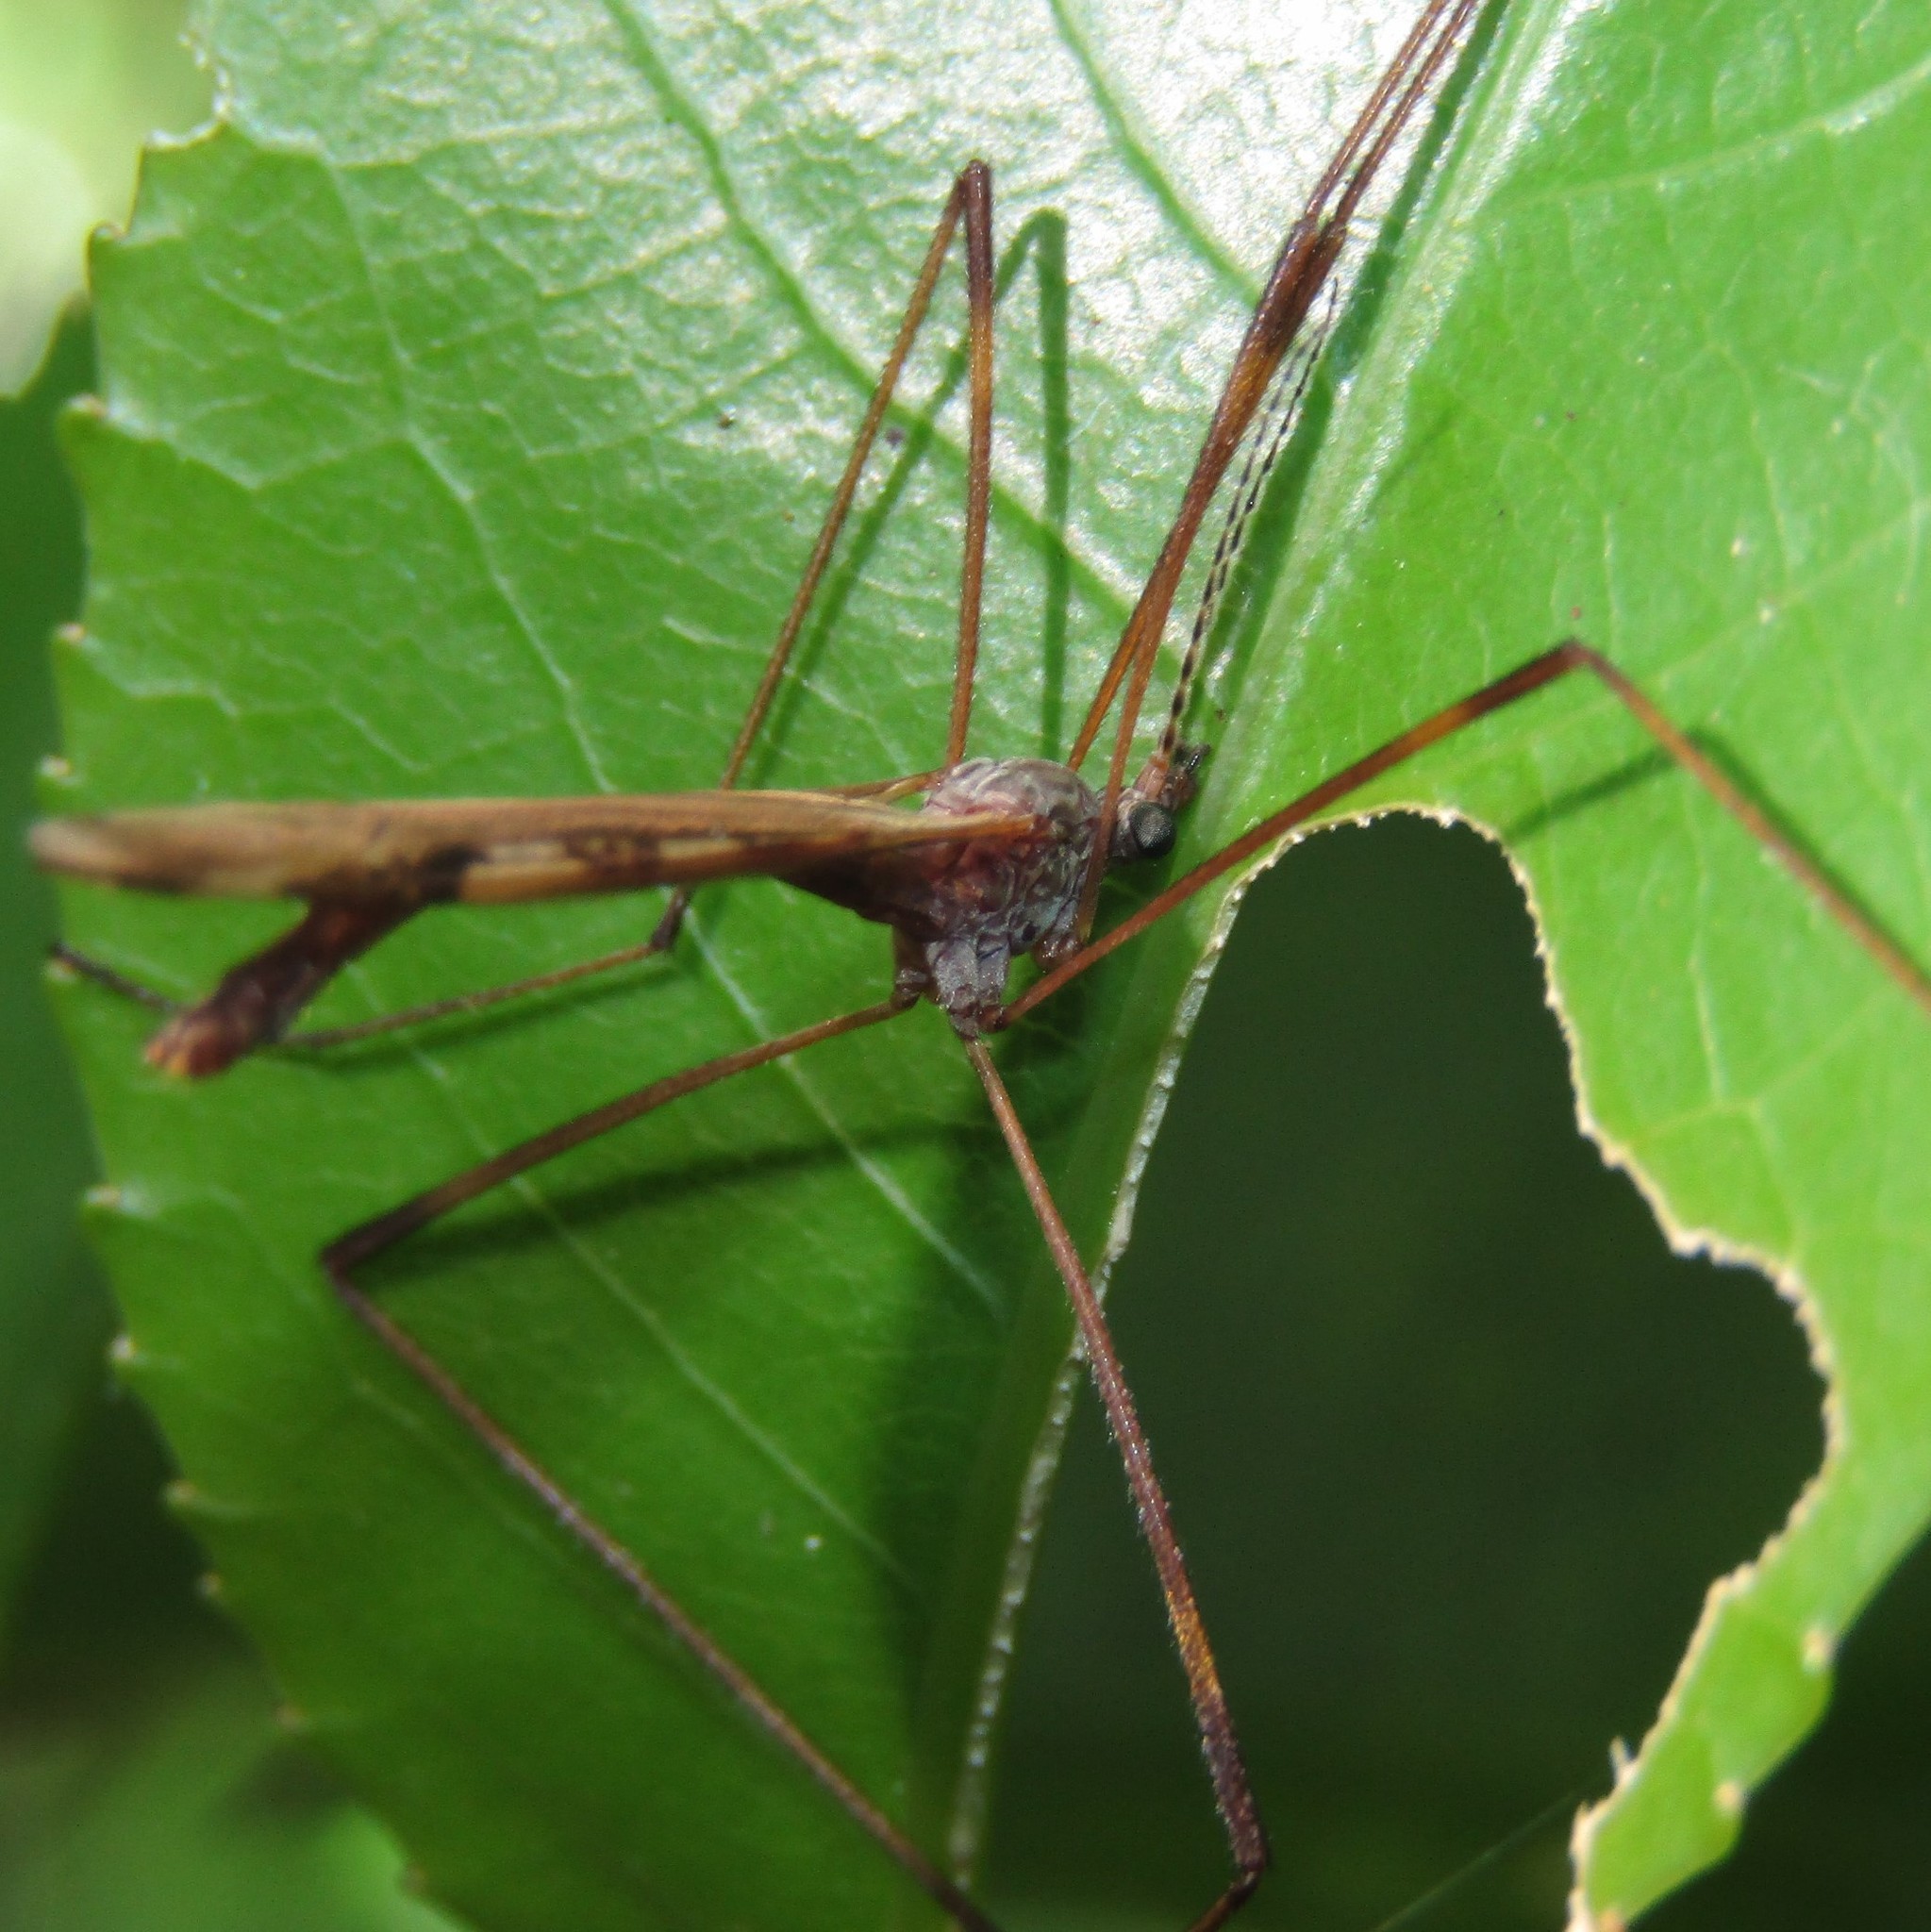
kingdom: Animalia
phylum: Arthropoda
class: Insecta
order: Diptera
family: Limoniidae
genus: Paralimnophila
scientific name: Paralimnophila skusei
